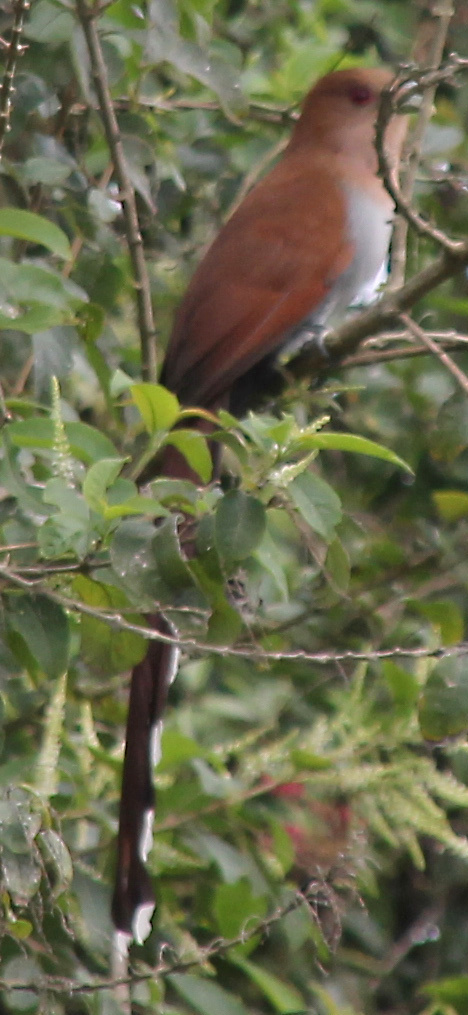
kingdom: Animalia
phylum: Chordata
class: Aves
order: Cuculiformes
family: Cuculidae
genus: Piaya
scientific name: Piaya cayana
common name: Squirrel cuckoo
